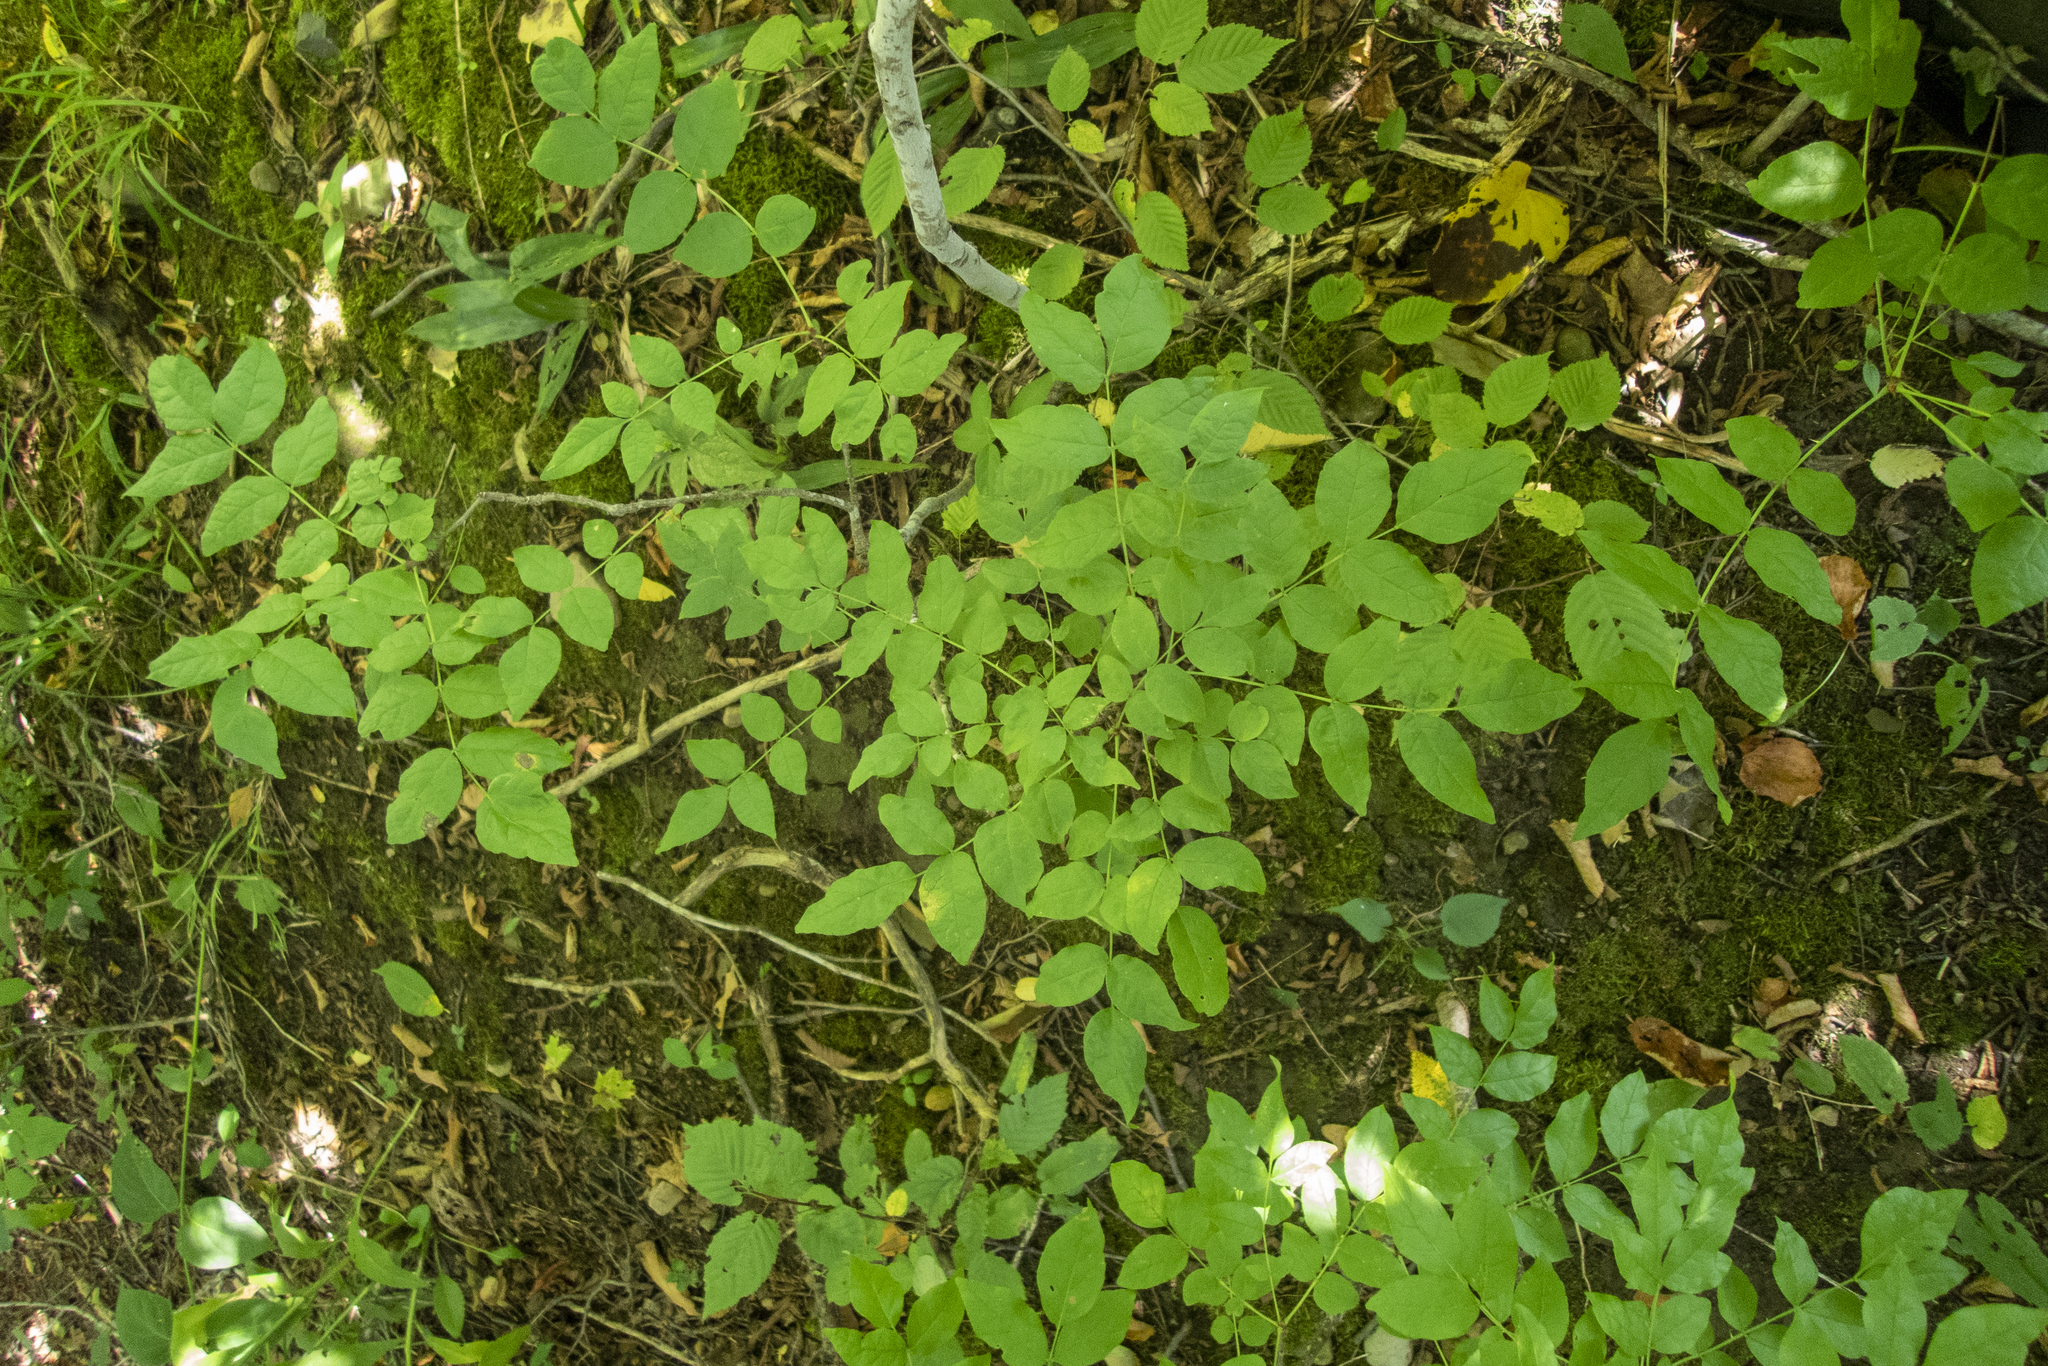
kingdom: Plantae
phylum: Tracheophyta
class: Magnoliopsida
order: Sapindales
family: Rutaceae
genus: Zanthoxylum
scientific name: Zanthoxylum americanum
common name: Northern prickly-ash
